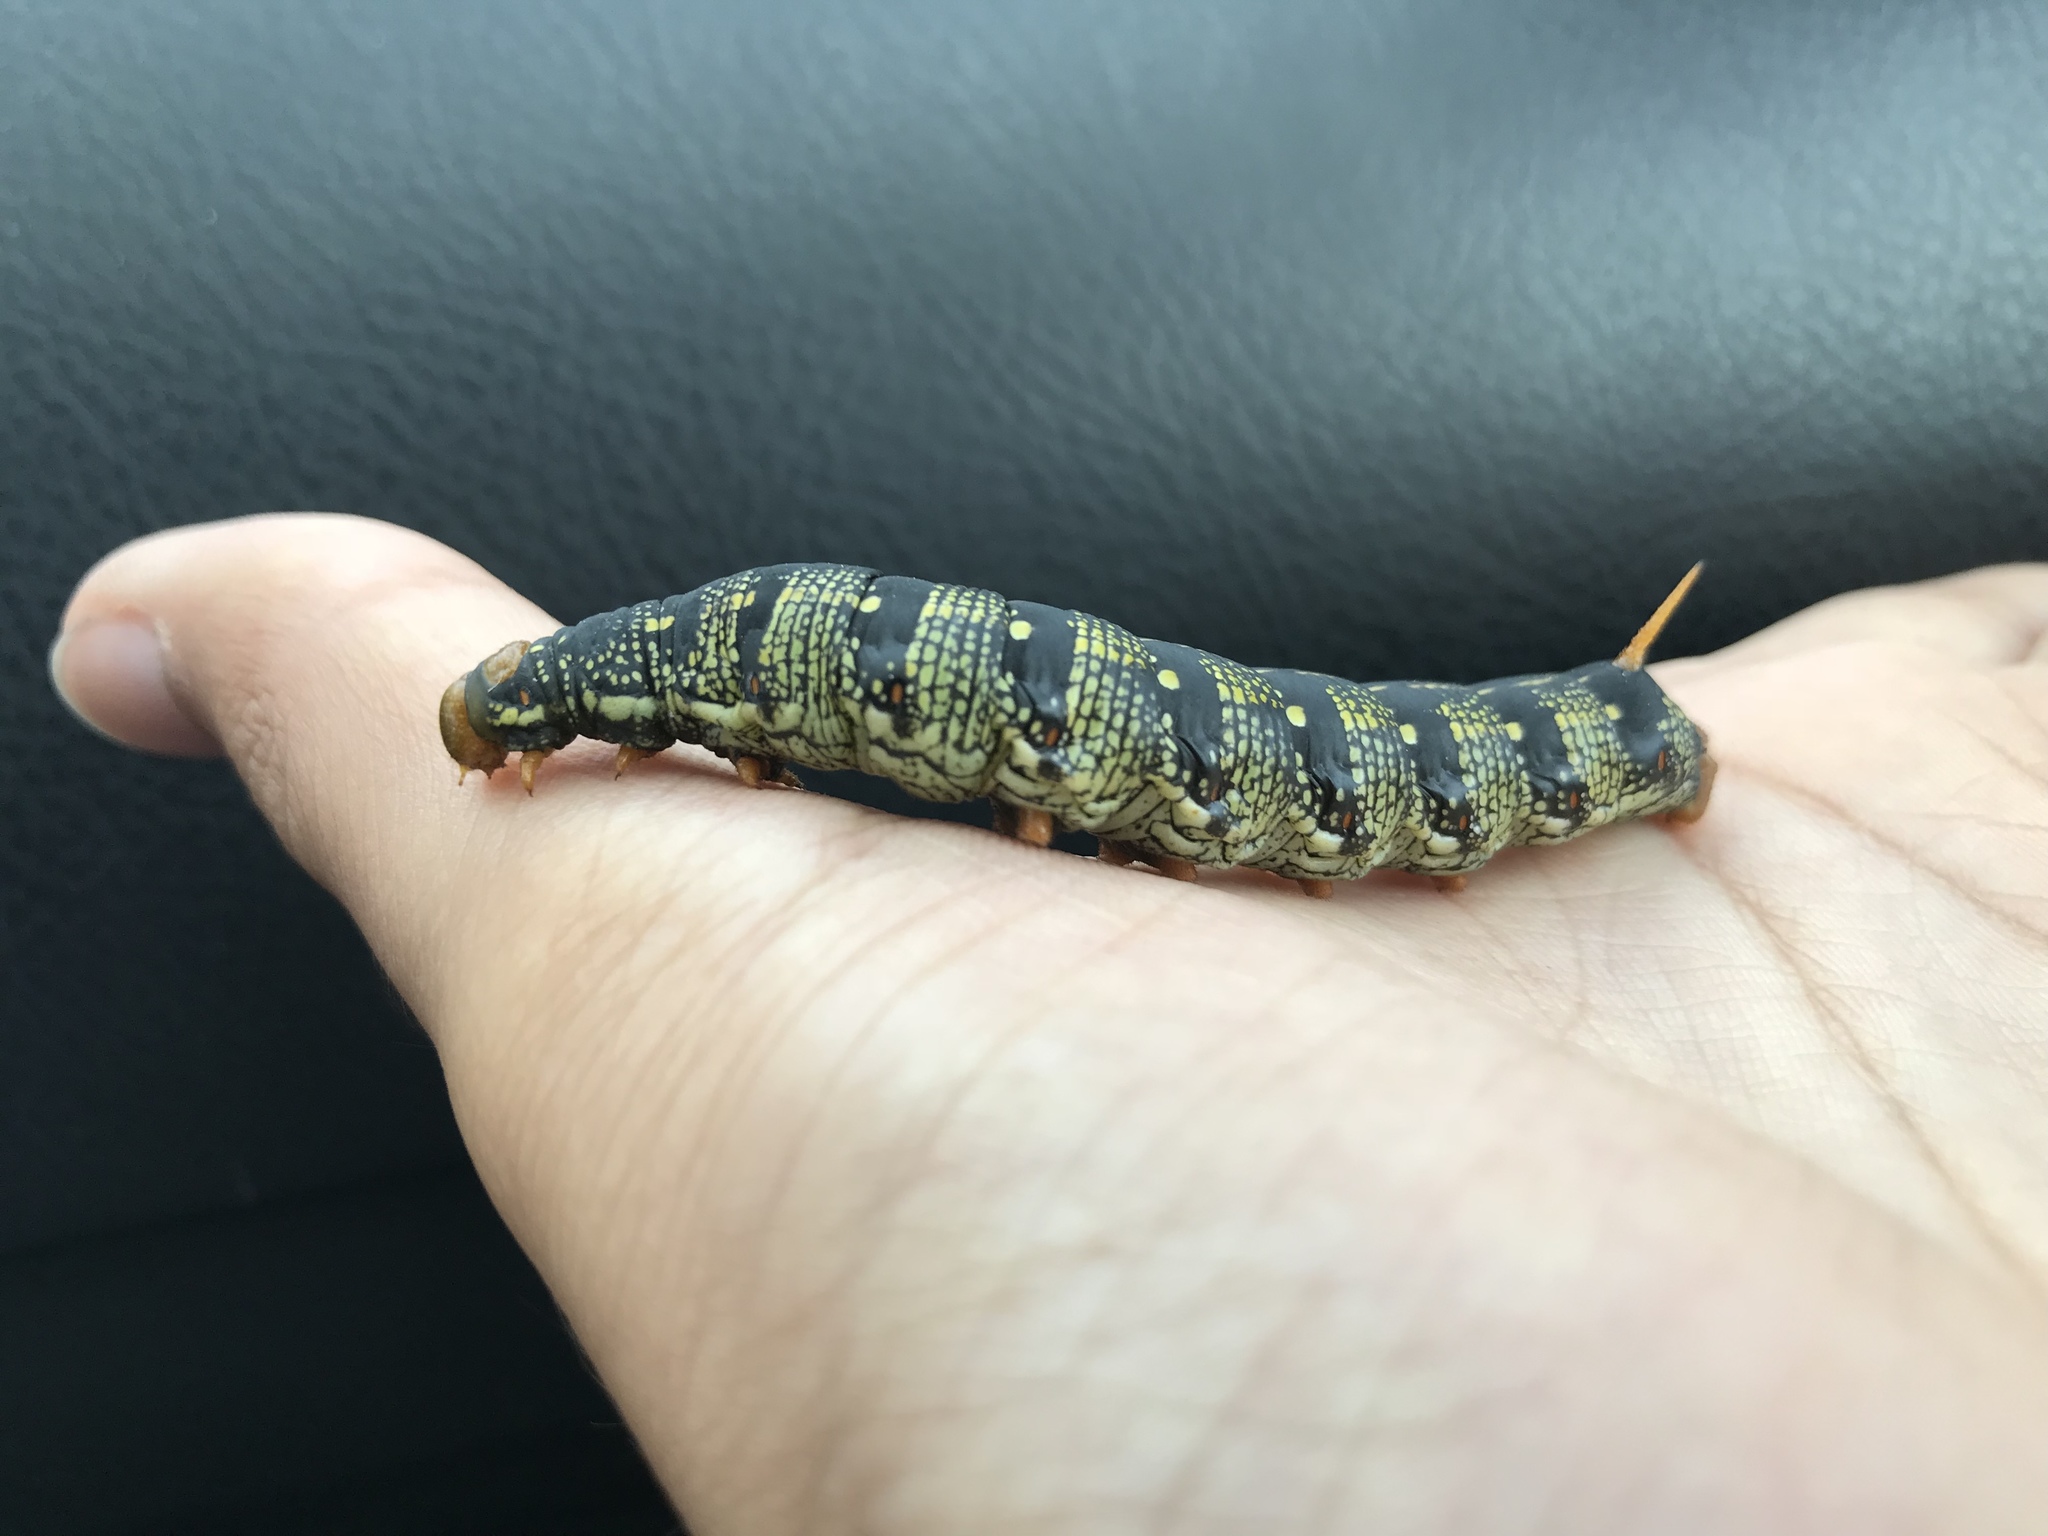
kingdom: Animalia
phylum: Arthropoda
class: Insecta
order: Lepidoptera
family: Sphingidae
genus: Hyles
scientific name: Hyles lineata
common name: White-lined sphinx
